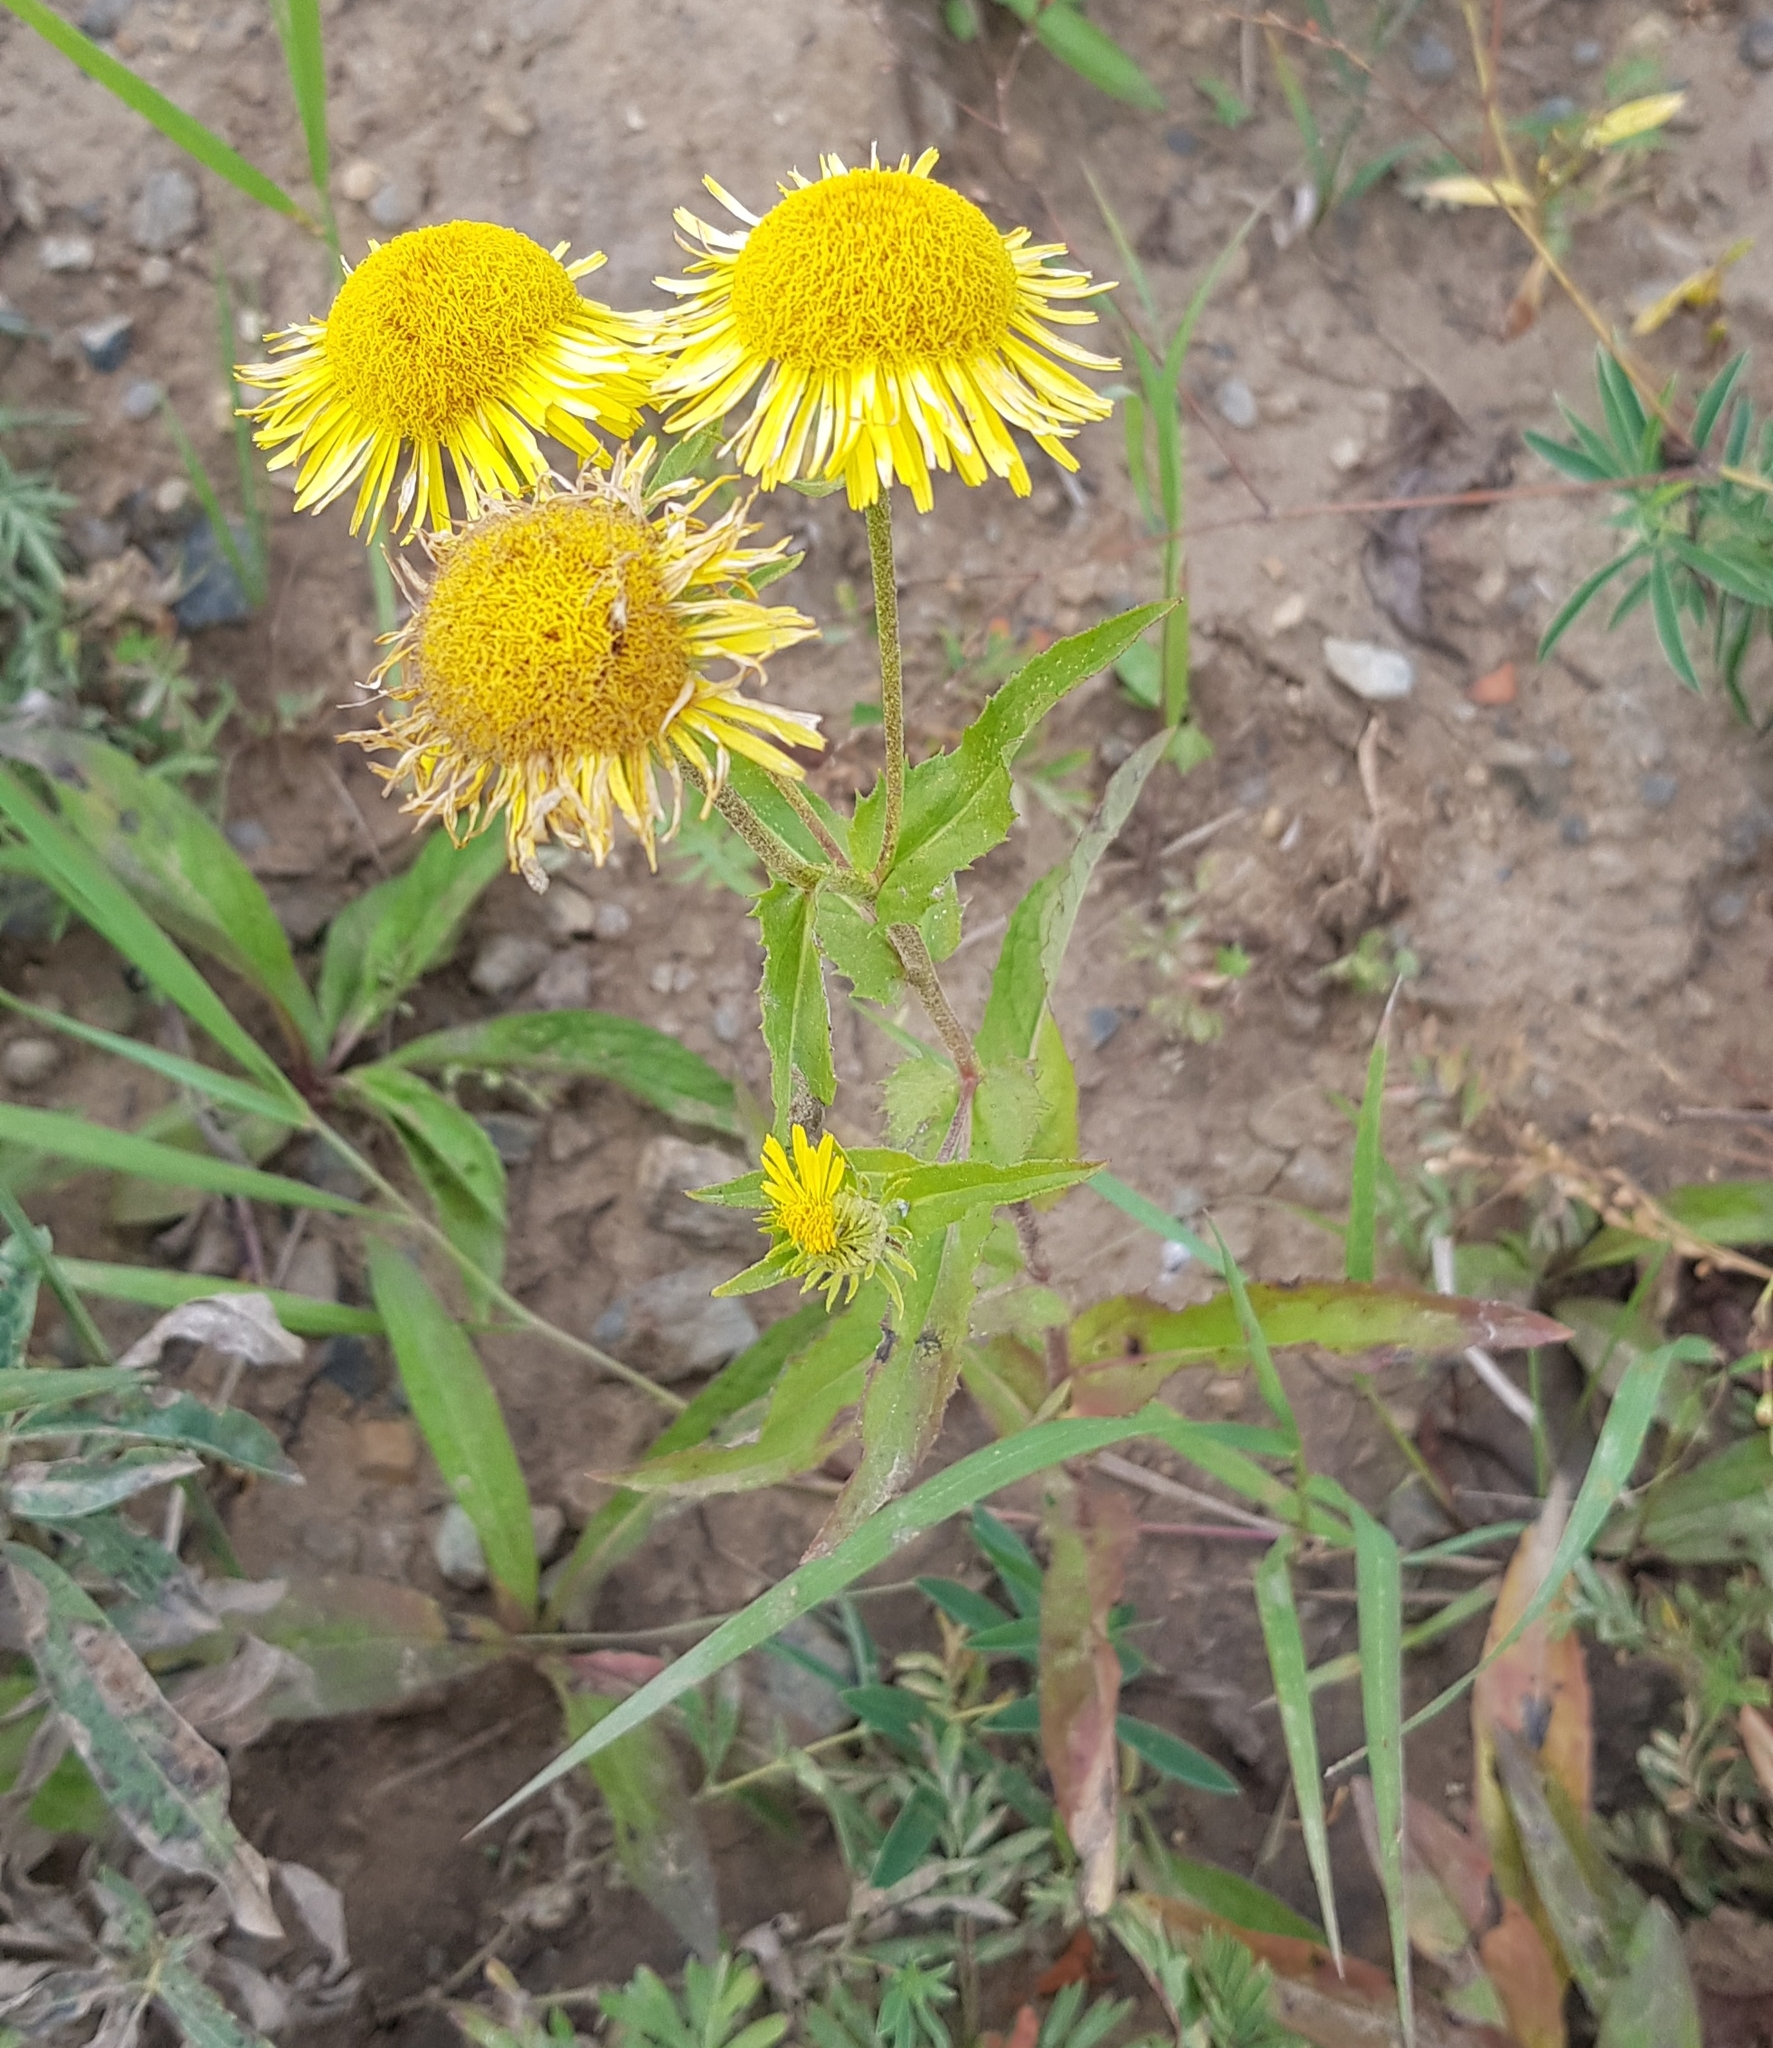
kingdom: Plantae
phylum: Tracheophyta
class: Magnoliopsida
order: Asterales
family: Asteraceae
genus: Pentanema
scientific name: Pentanema britannicum
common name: British elecampane
